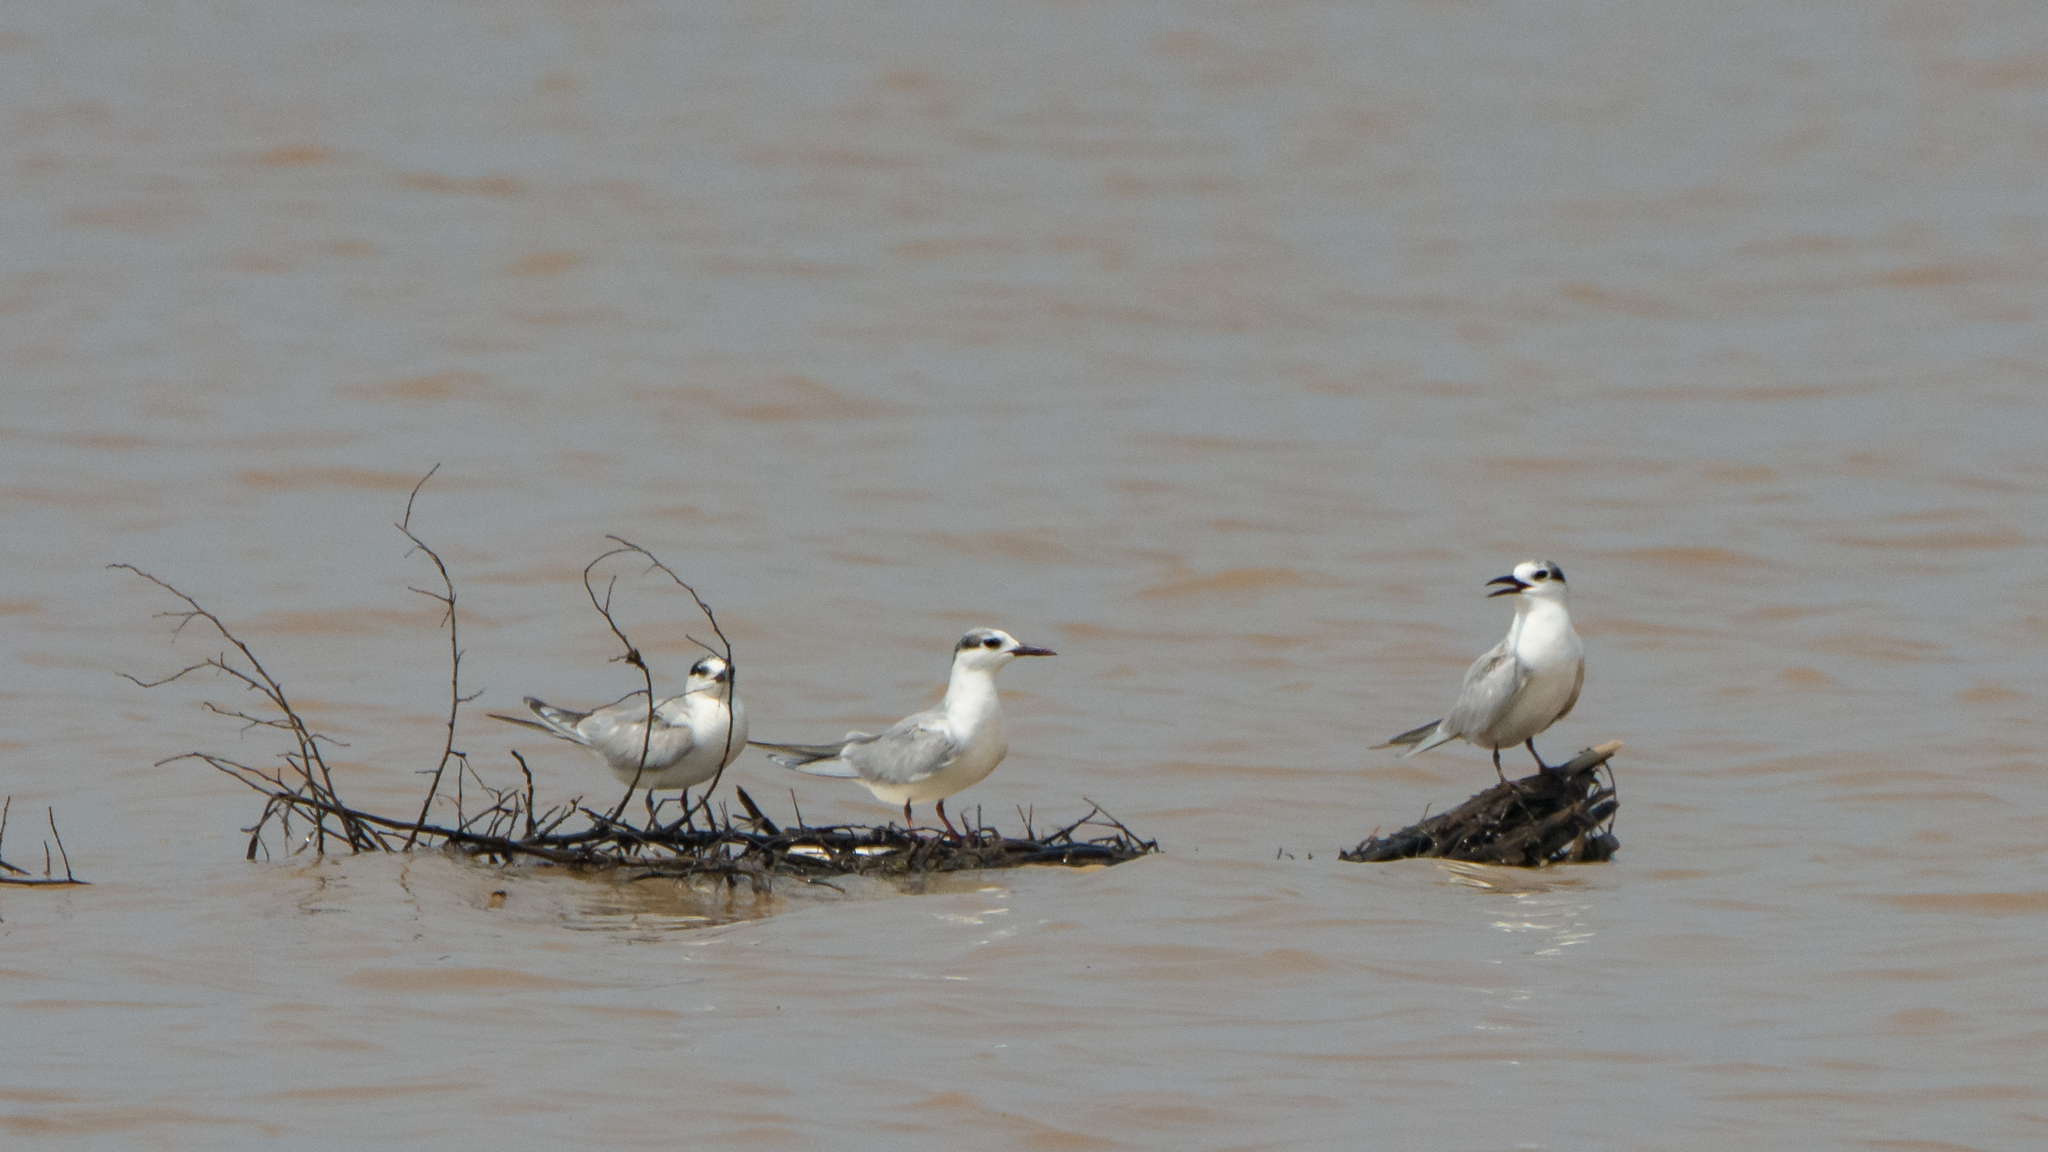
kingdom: Animalia
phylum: Chordata
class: Aves
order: Charadriiformes
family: Laridae
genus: Chlidonias
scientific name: Chlidonias hybrida
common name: Whiskered tern
